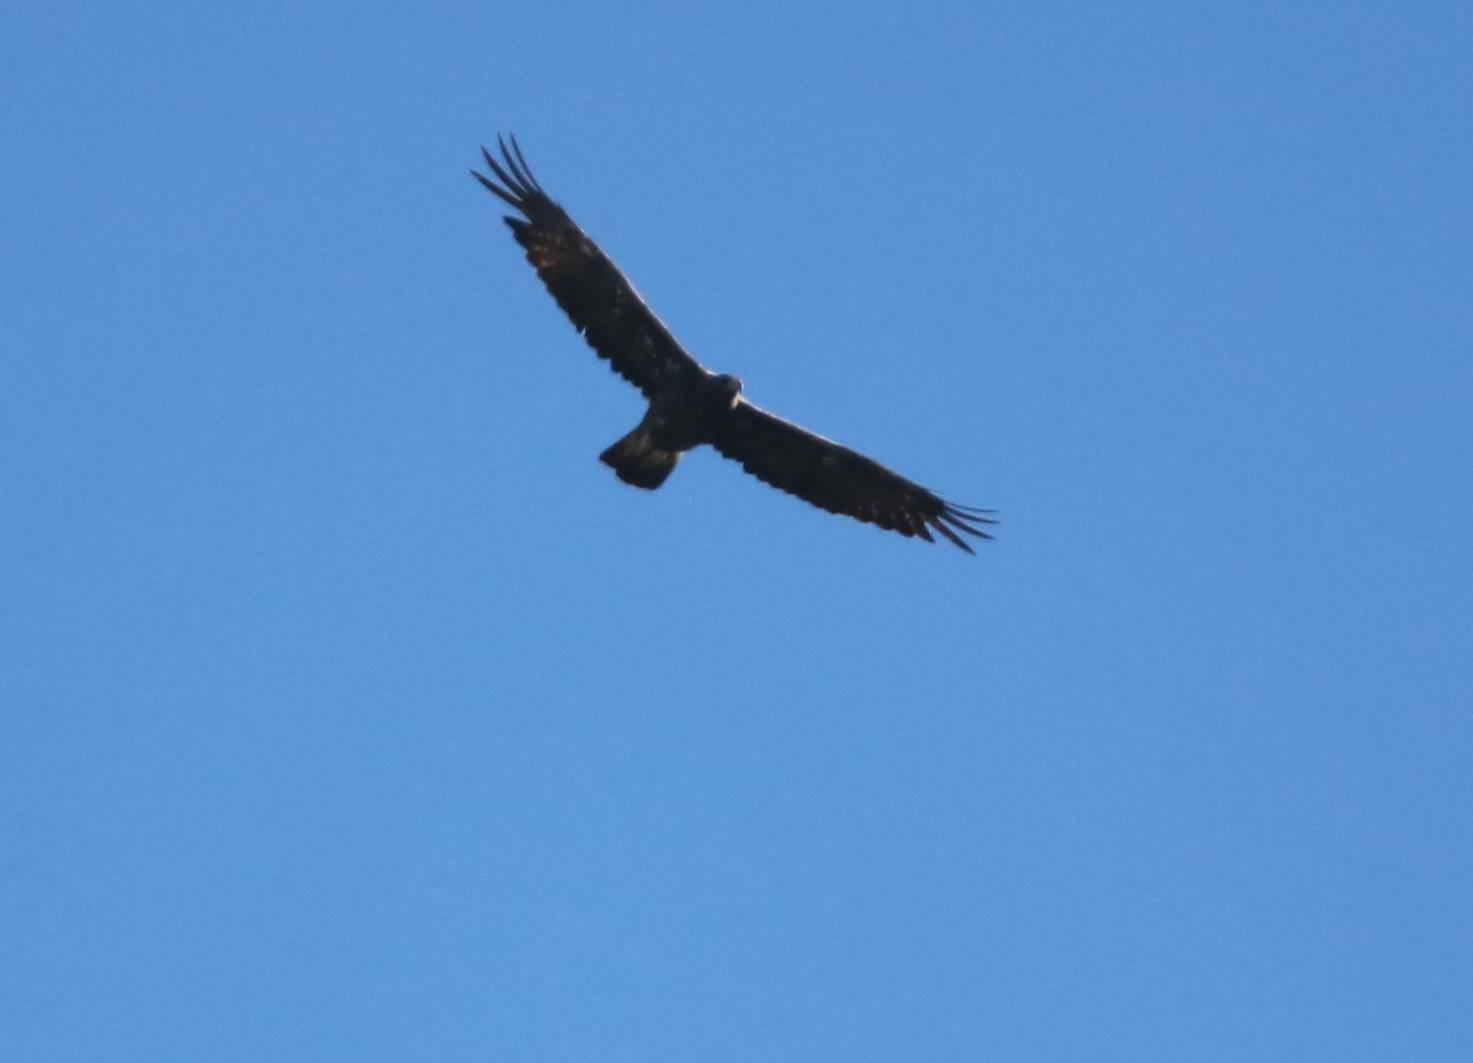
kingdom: Animalia
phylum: Chordata
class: Aves
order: Accipitriformes
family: Accipitridae
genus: Aquila
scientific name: Aquila chrysaetos
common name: Golden eagle
